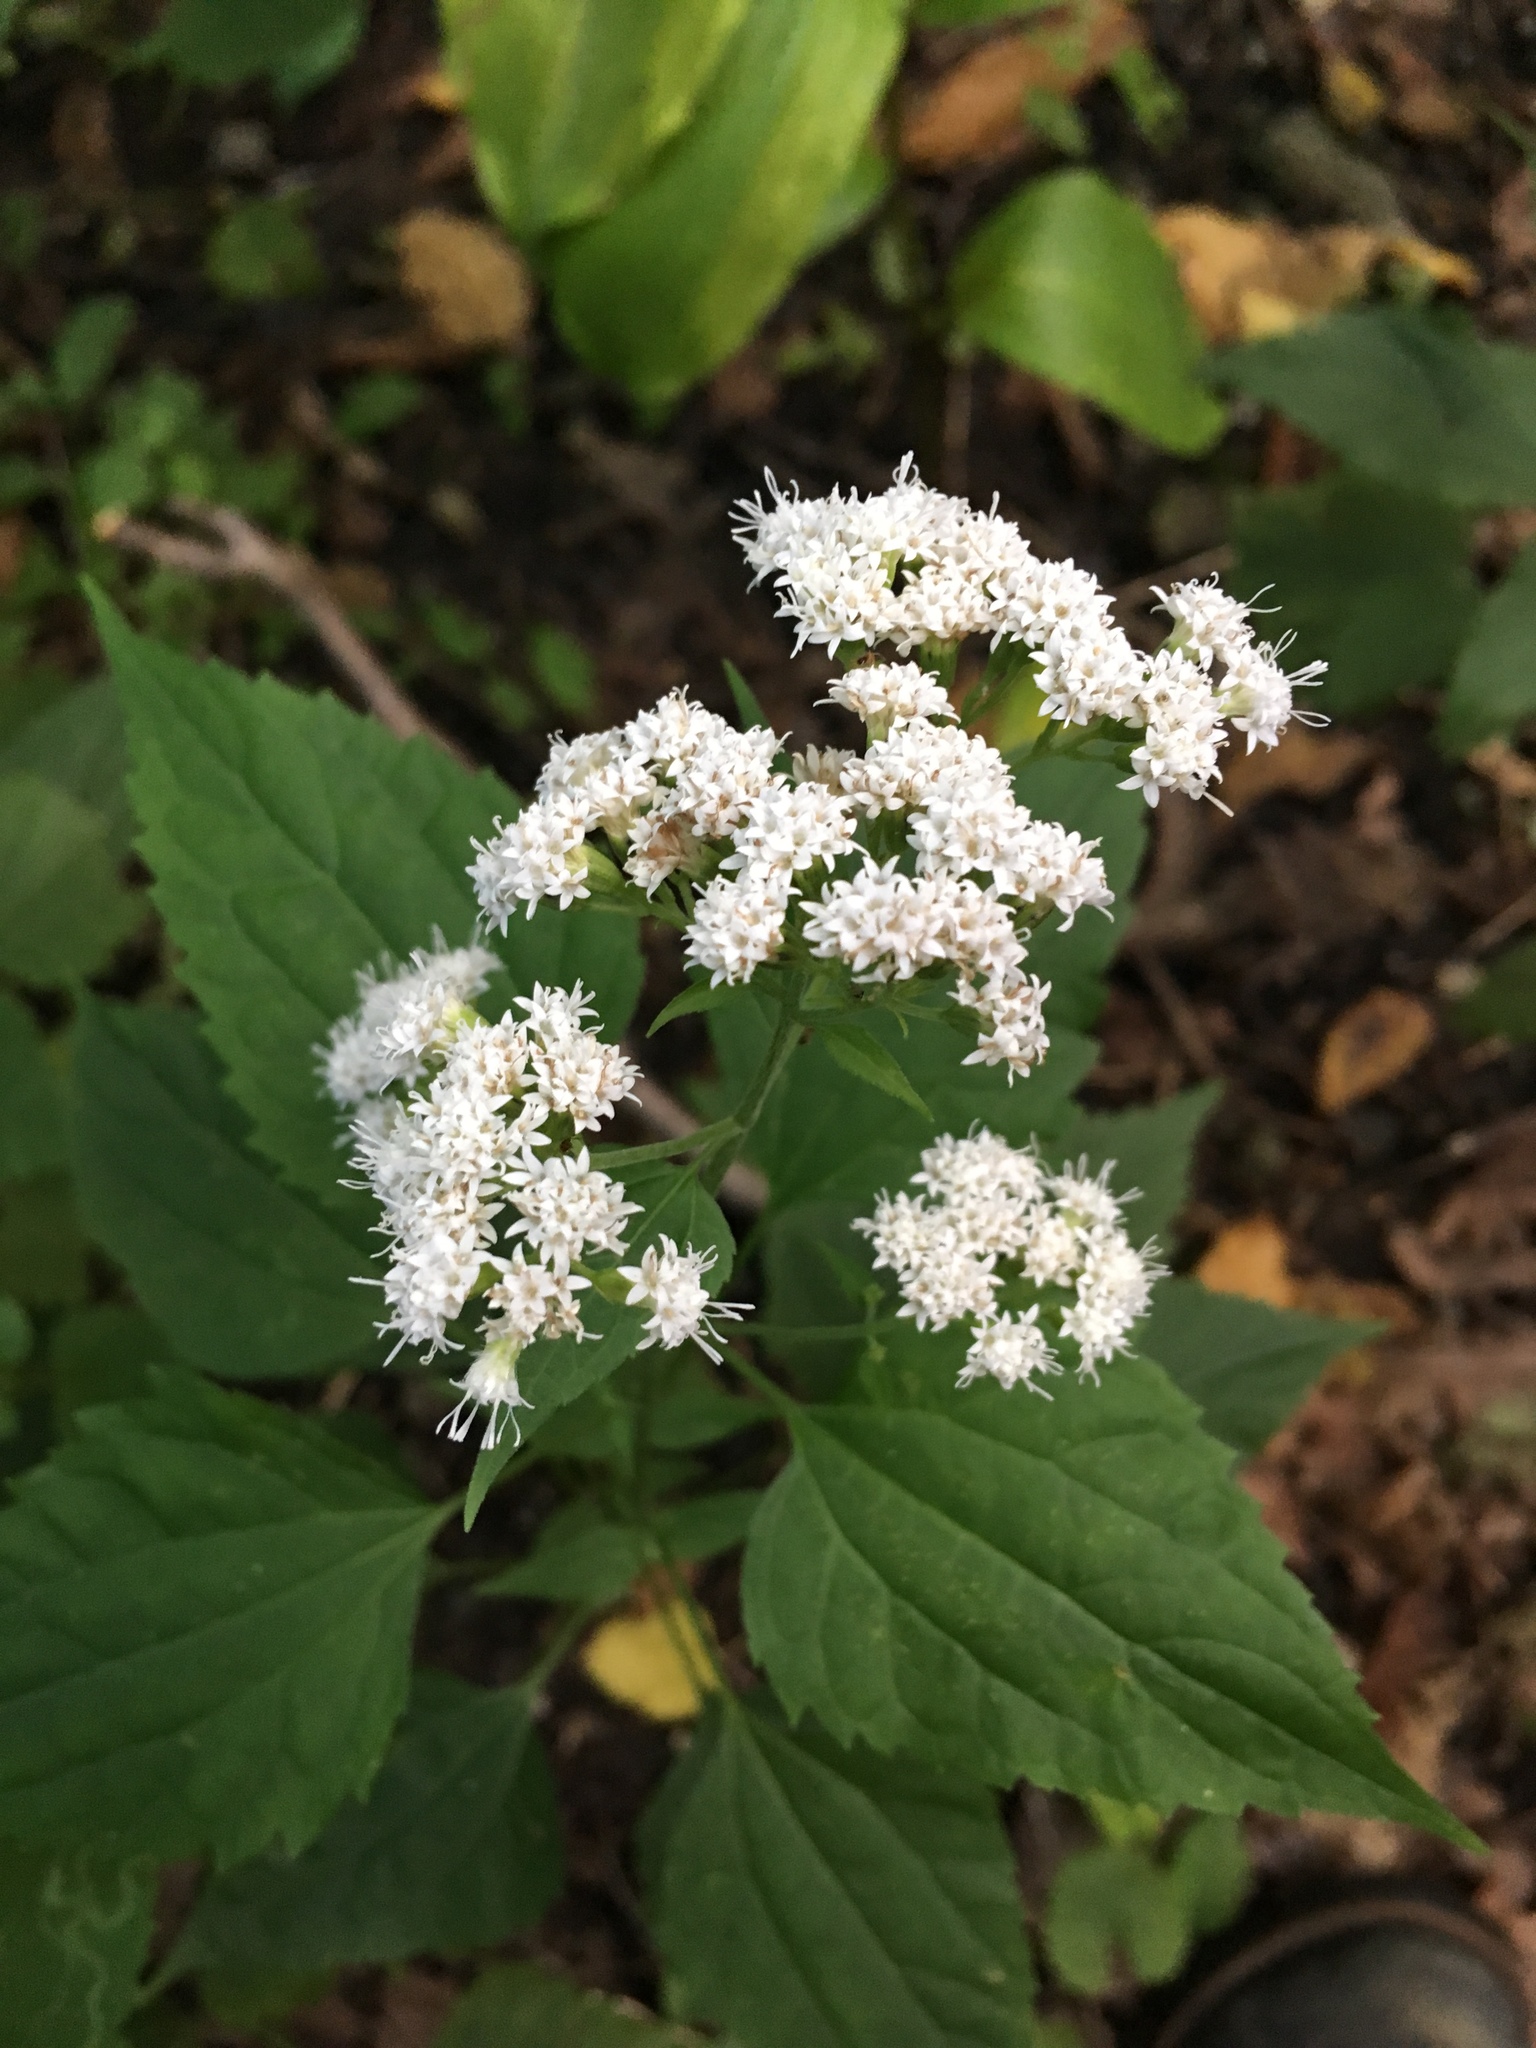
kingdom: Plantae
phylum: Tracheophyta
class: Magnoliopsida
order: Asterales
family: Asteraceae
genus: Ageratina
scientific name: Ageratina altissima
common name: White snakeroot
